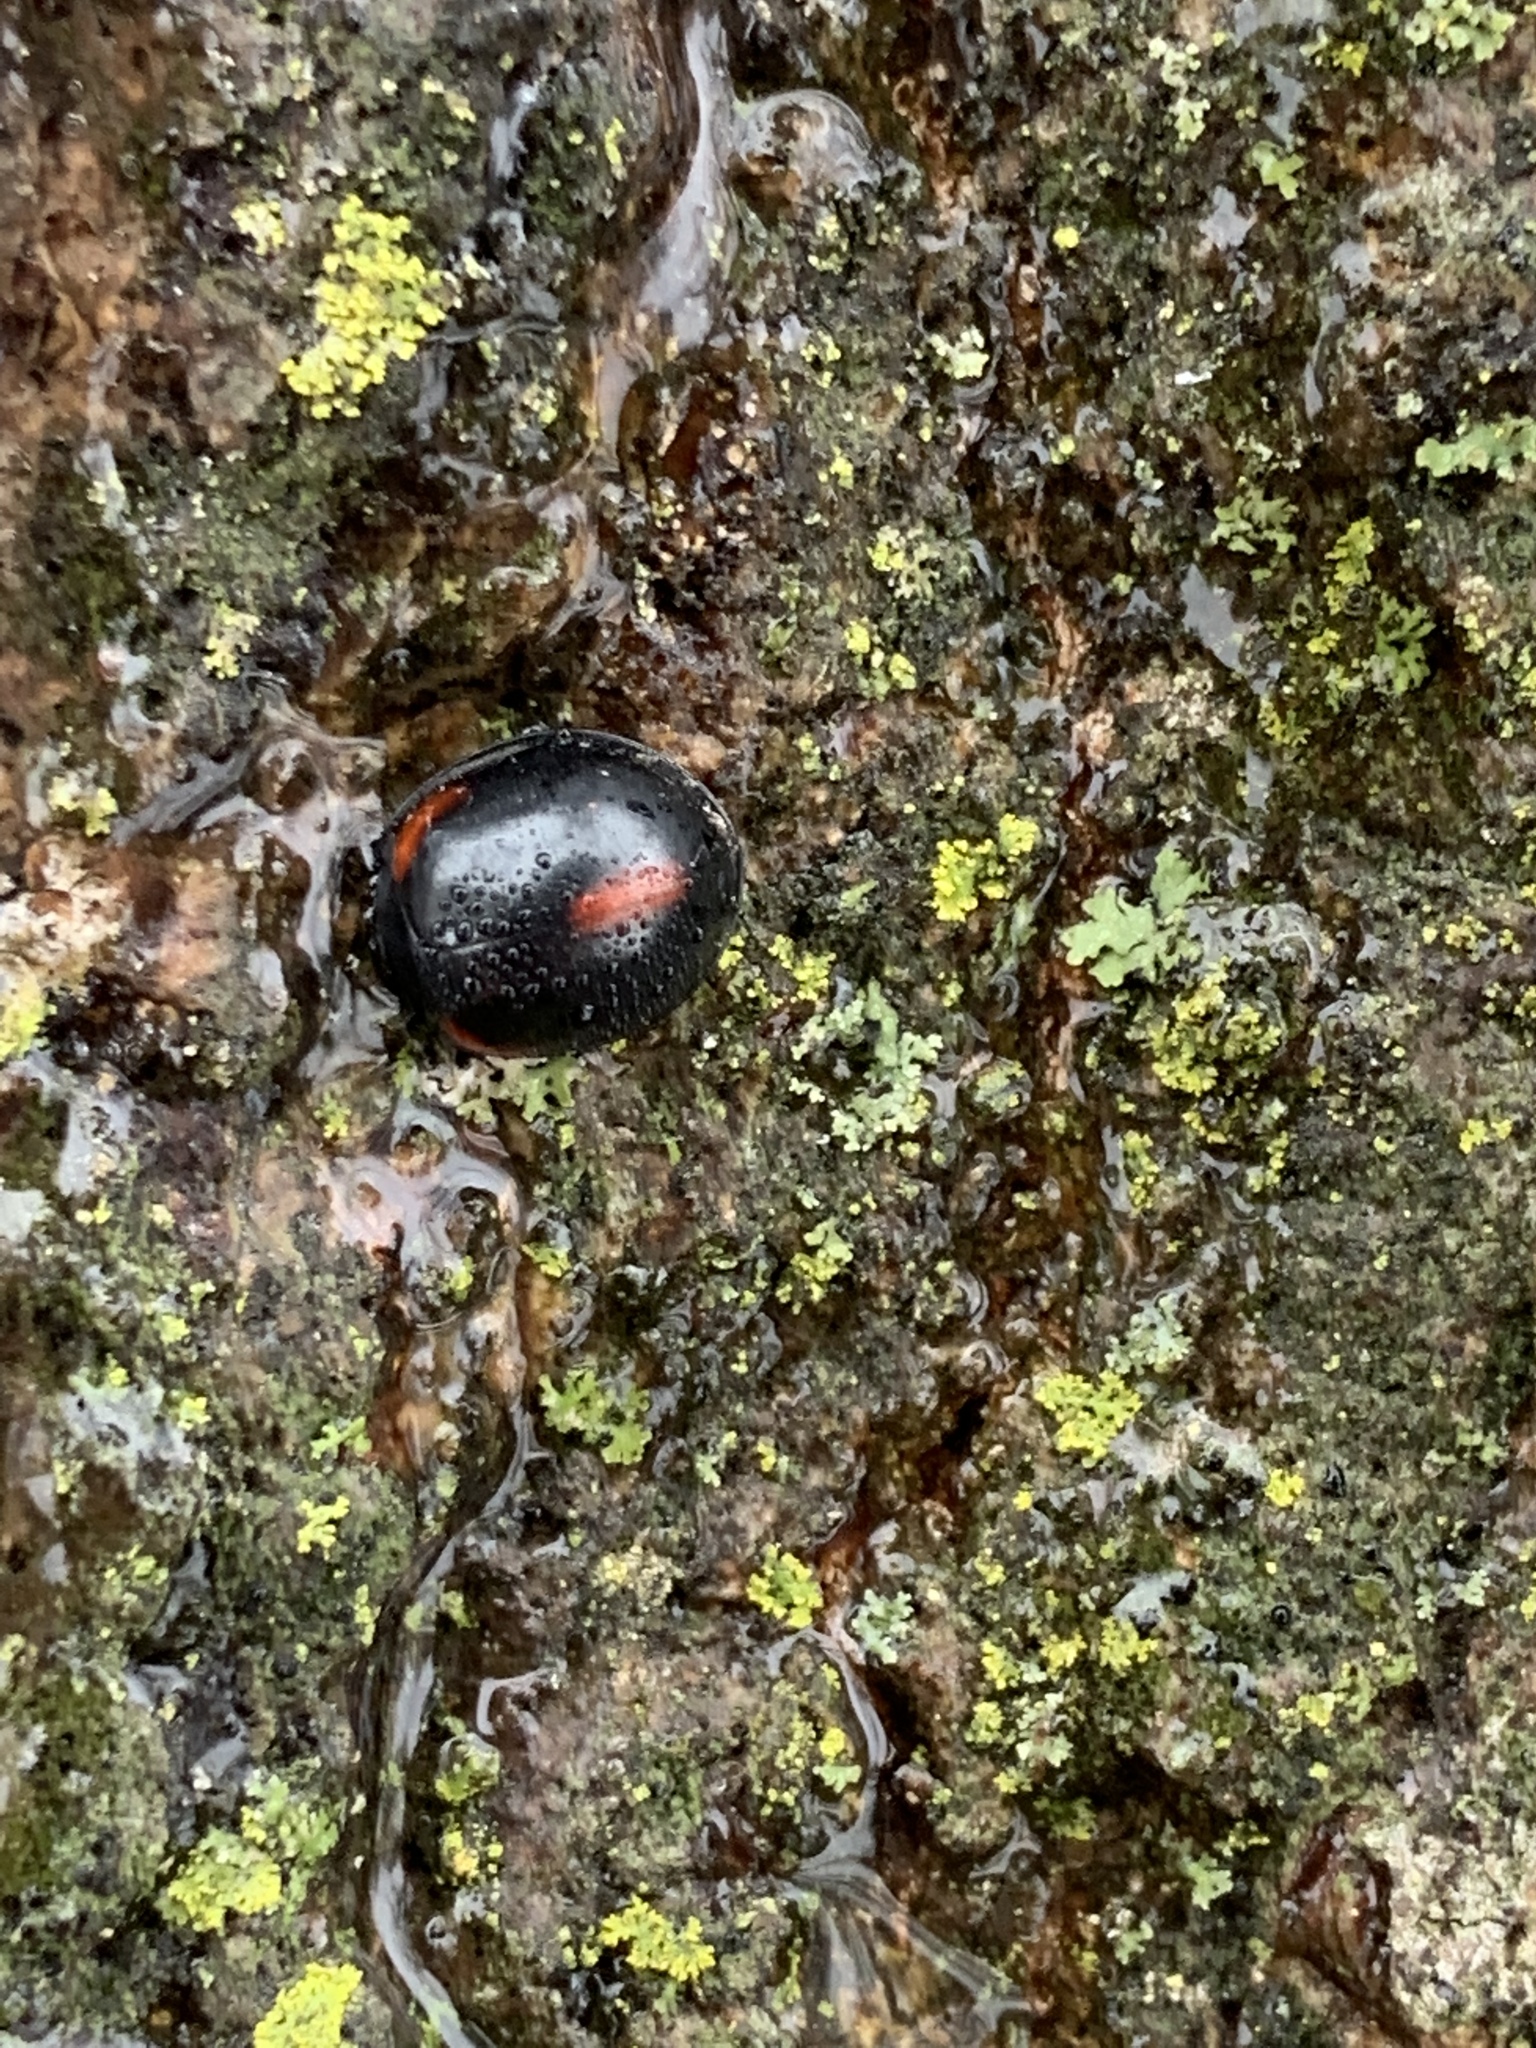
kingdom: Animalia
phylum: Arthropoda
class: Insecta
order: Coleoptera
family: Coccinellidae
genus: Axion
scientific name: Axion tripustulatum
